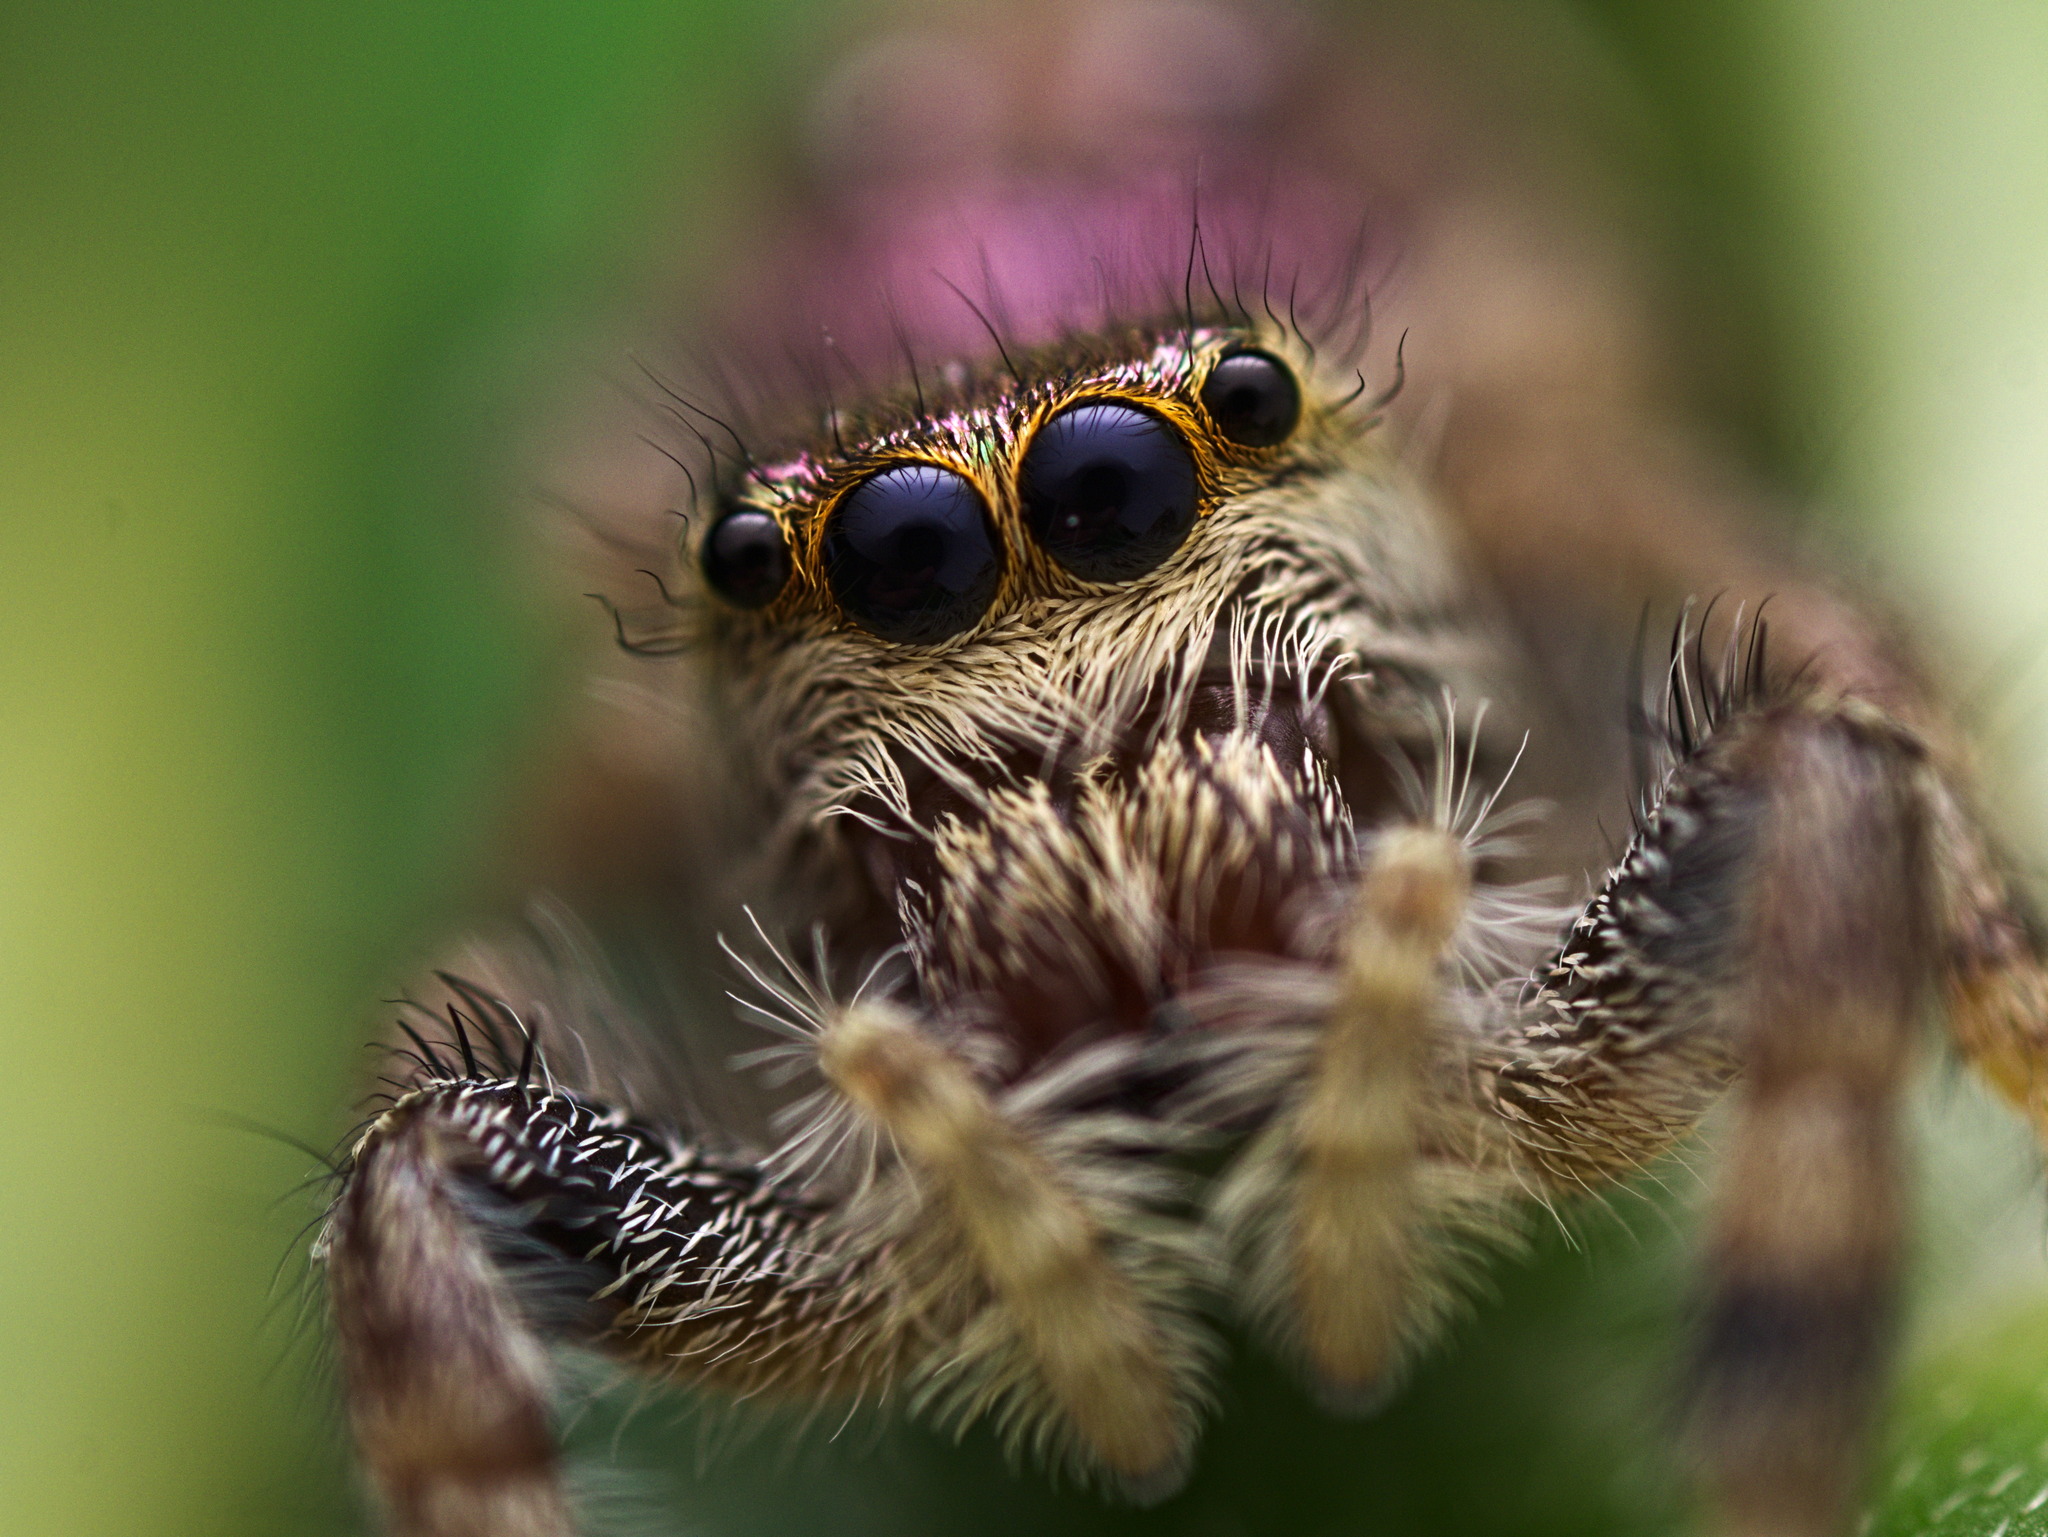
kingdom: Animalia
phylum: Arthropoda
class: Arachnida
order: Araneae
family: Salticidae
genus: Paraphidippus
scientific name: Paraphidippus aurantius
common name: Jumping spiders
